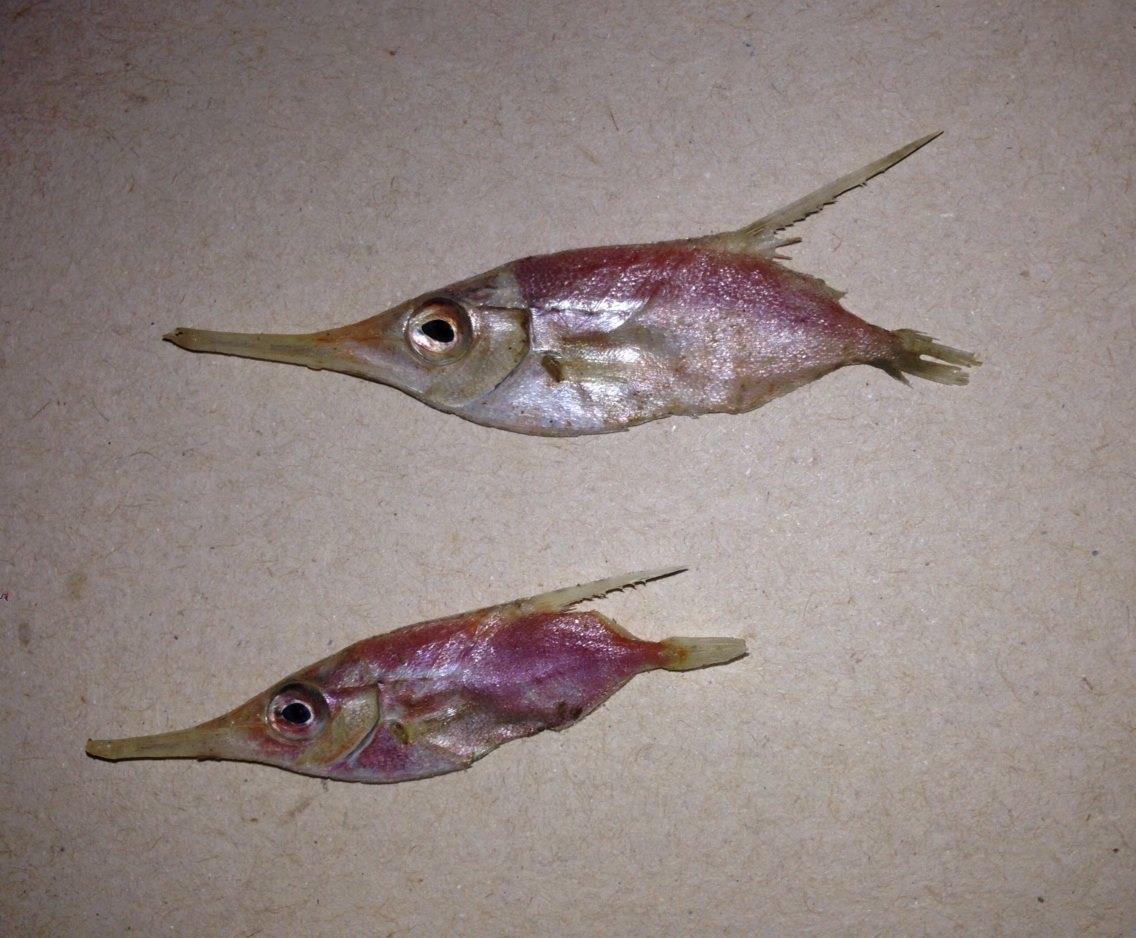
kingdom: Animalia
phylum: Chordata
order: Syngnathiformes
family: Centriscidae
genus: Macroramphosus
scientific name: Macroramphosus scolopax
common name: Snipe-fish
